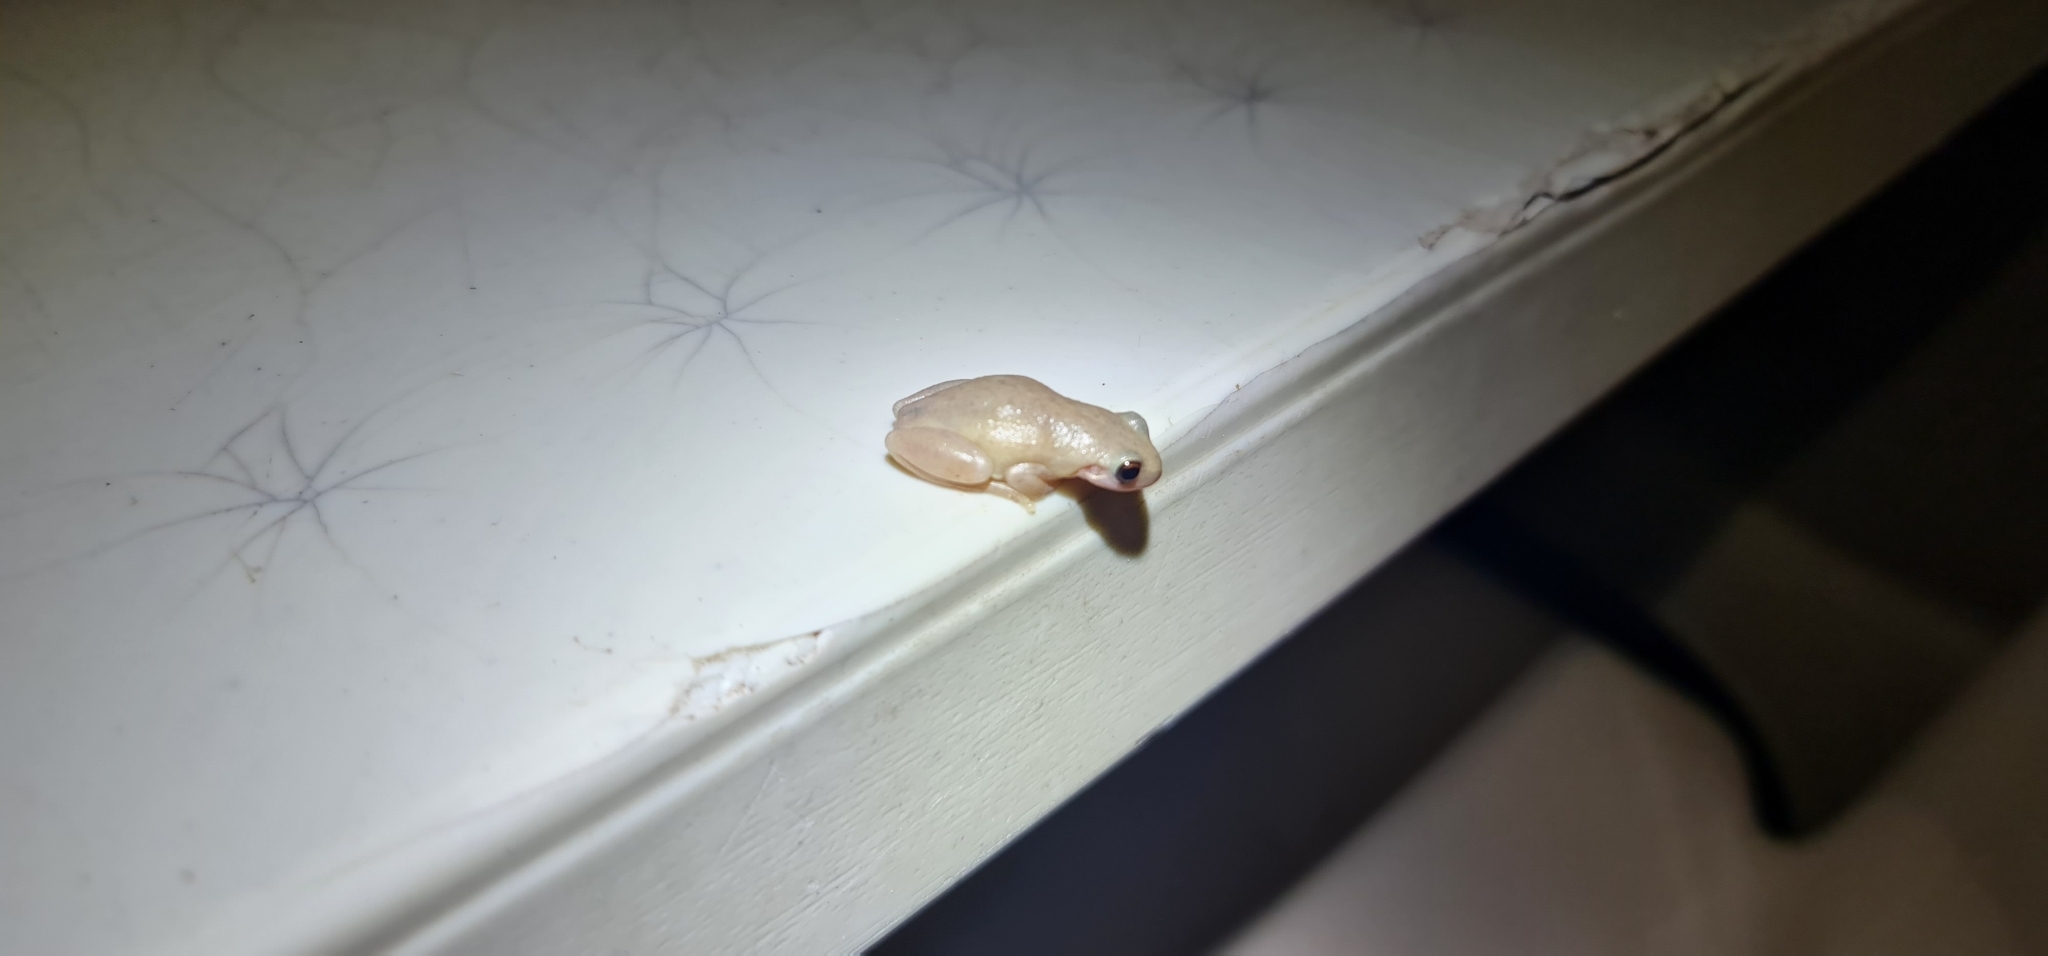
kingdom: Animalia
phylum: Chordata
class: Amphibia
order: Anura
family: Pelodryadidae
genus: Litoria
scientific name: Litoria rubella
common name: Desert tree frog
